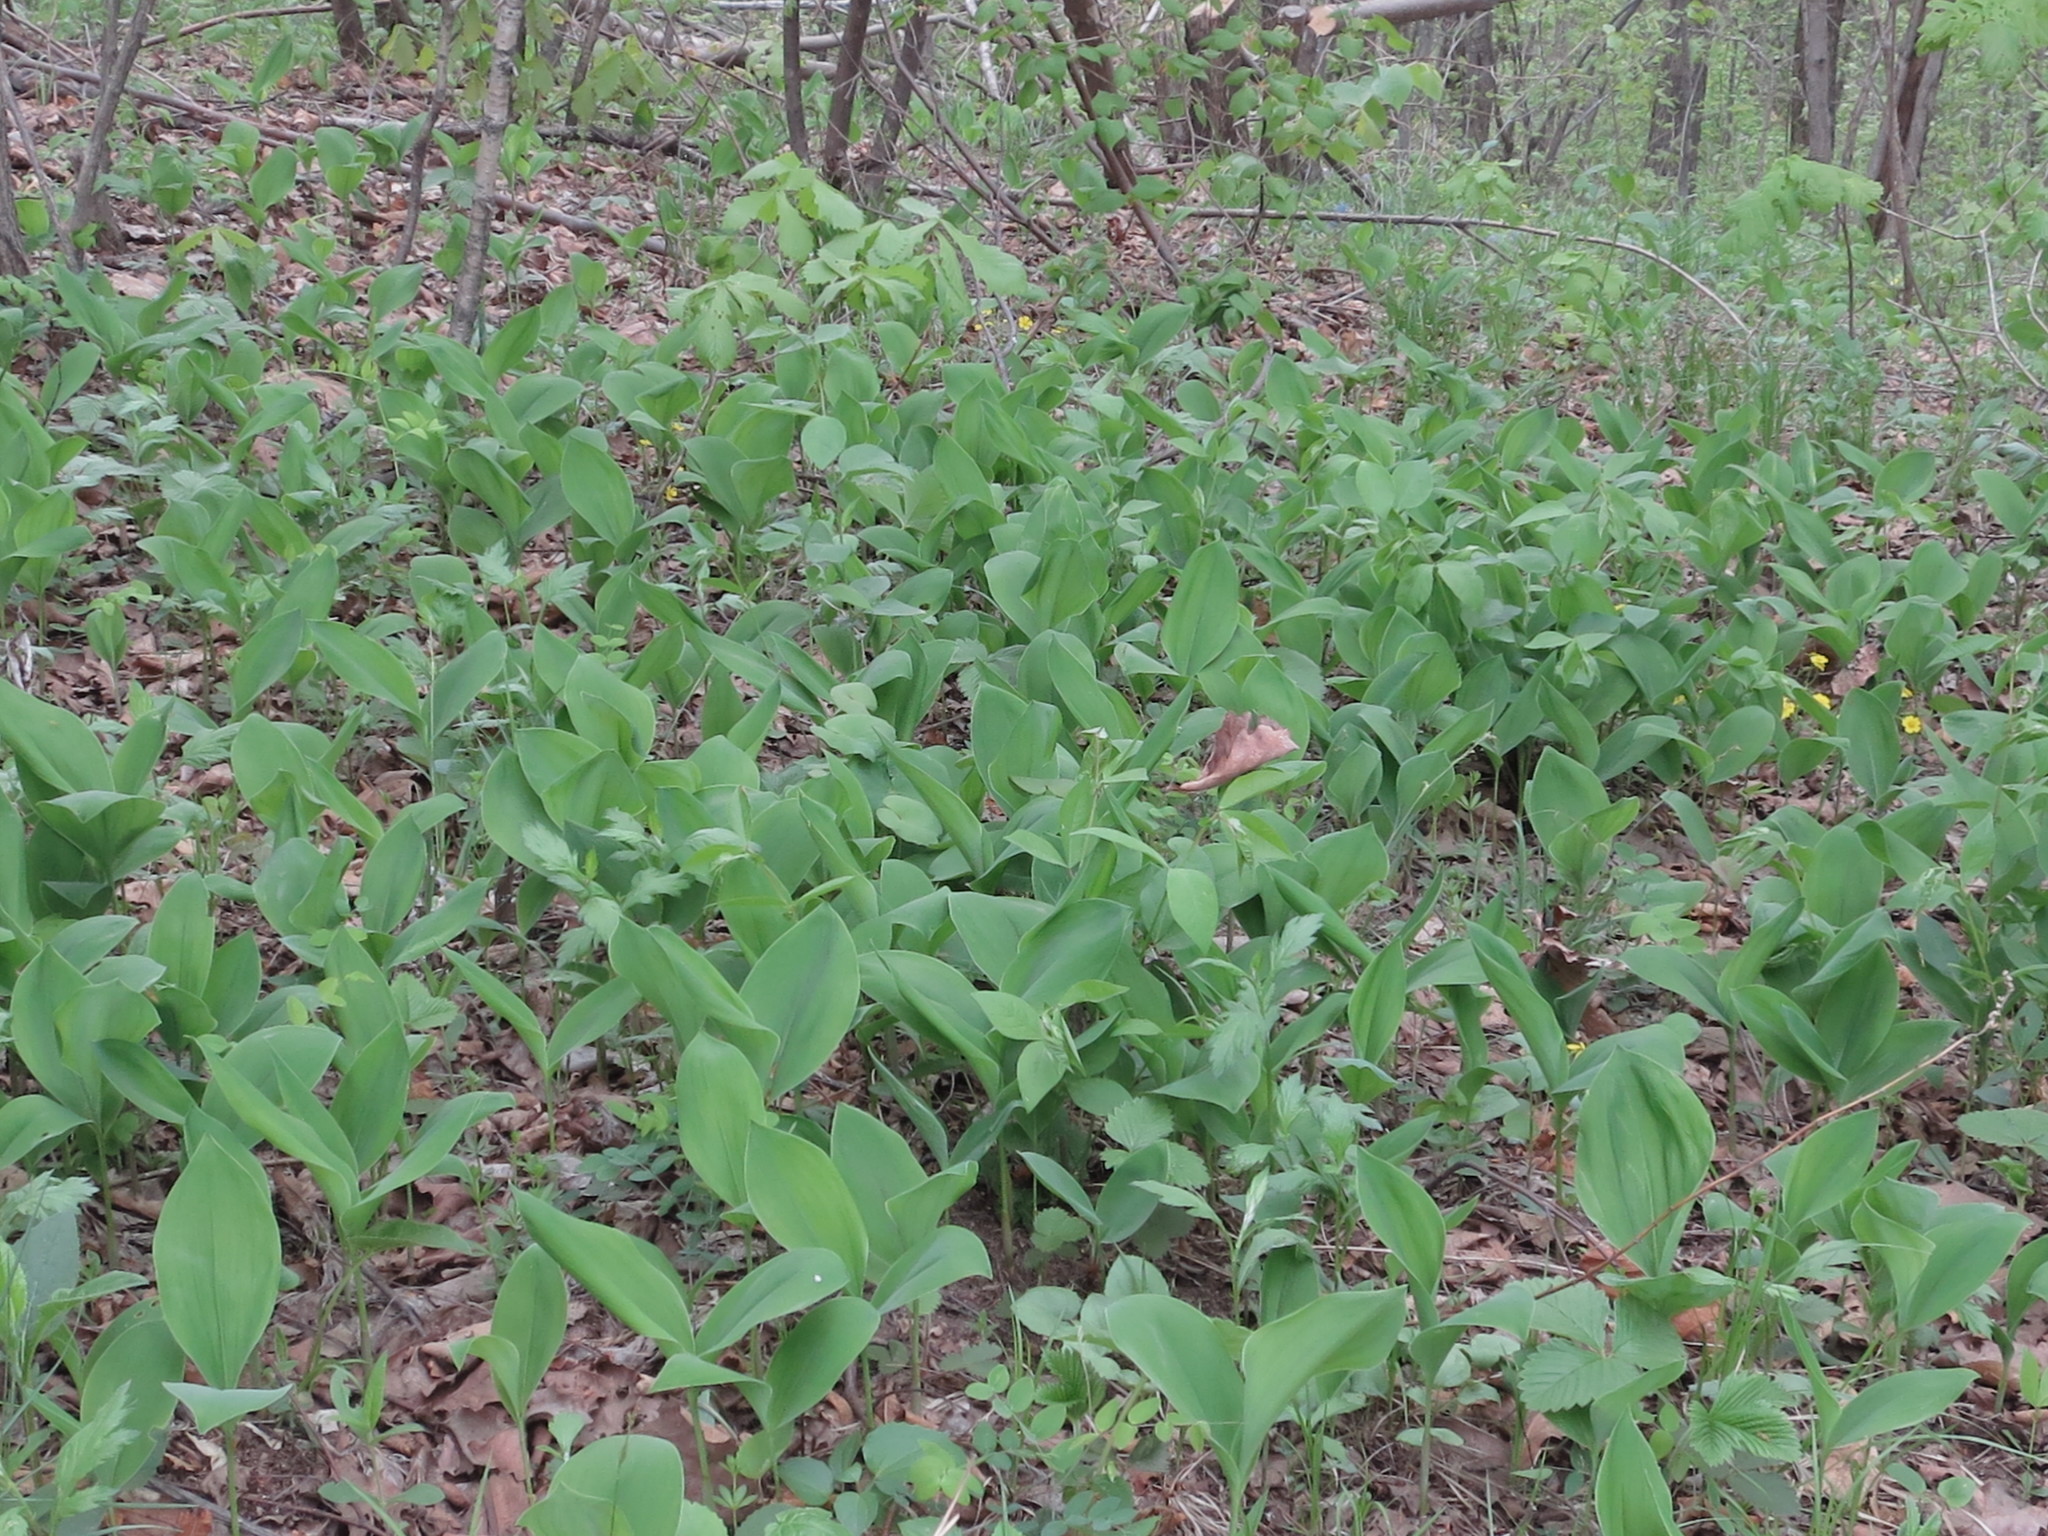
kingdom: Plantae
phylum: Tracheophyta
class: Liliopsida
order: Asparagales
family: Asparagaceae
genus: Convallaria
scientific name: Convallaria keiskei
